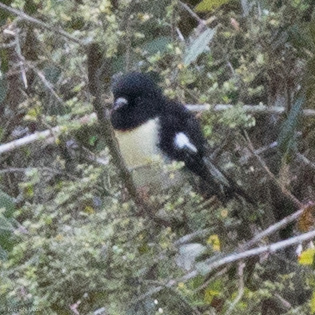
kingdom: Animalia
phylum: Chordata
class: Aves
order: Passeriformes
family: Petroicidae
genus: Petroica
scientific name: Petroica macrocephala
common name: Tomtit
